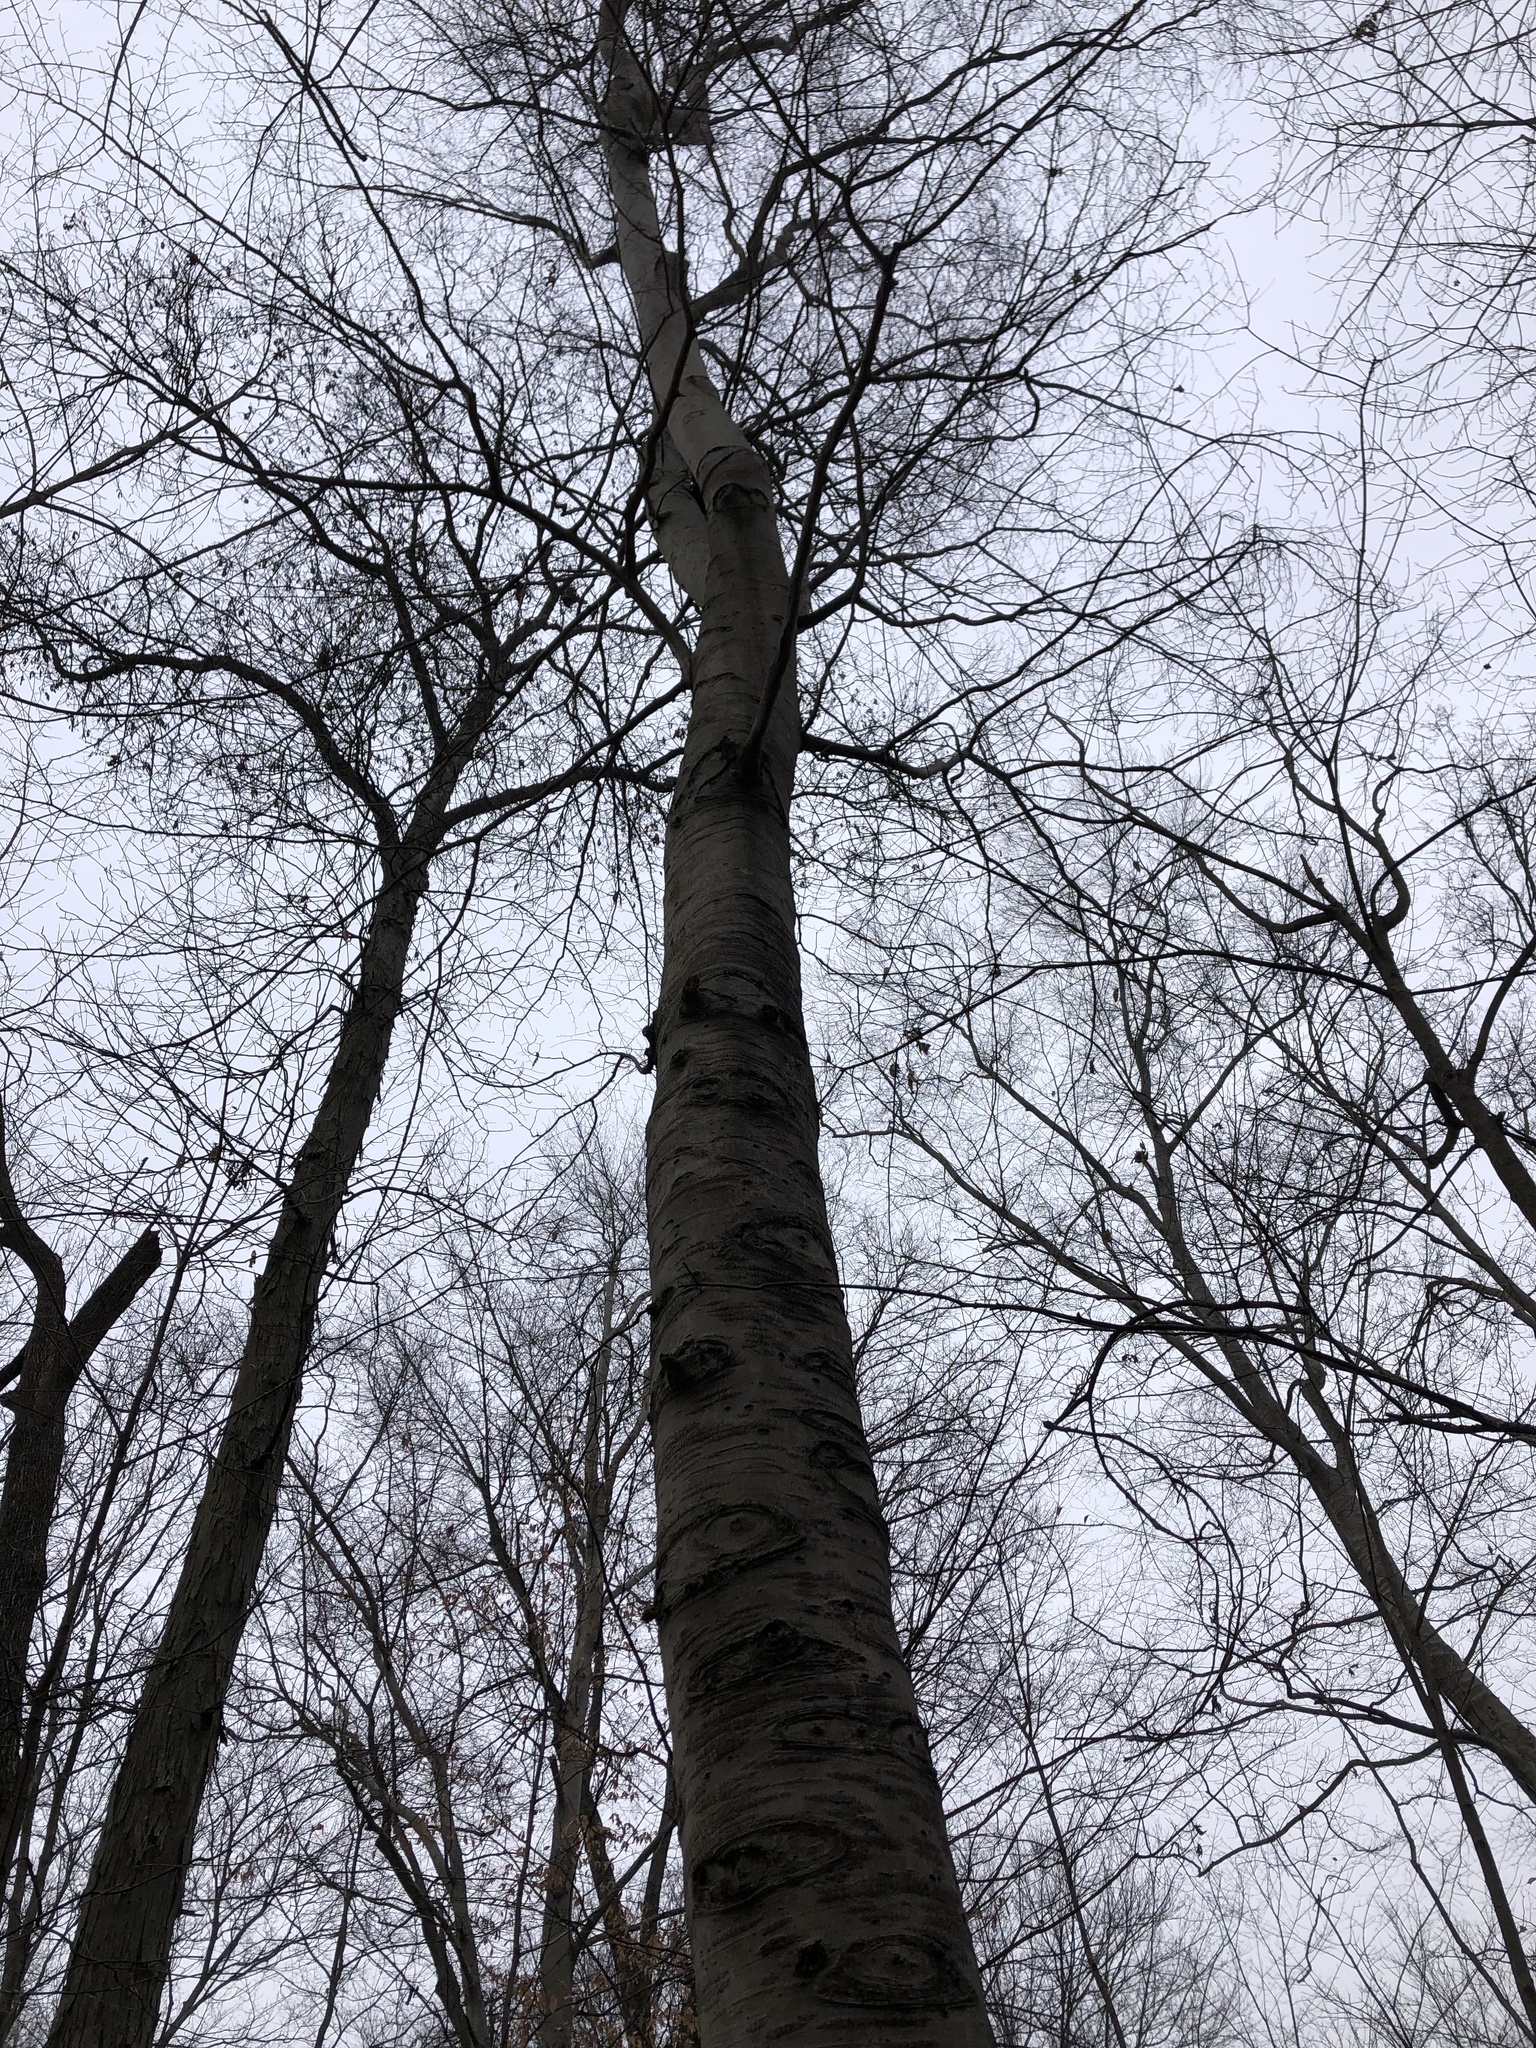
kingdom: Plantae
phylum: Tracheophyta
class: Magnoliopsida
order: Fagales
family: Fagaceae
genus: Fagus
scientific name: Fagus grandifolia
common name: American beech
